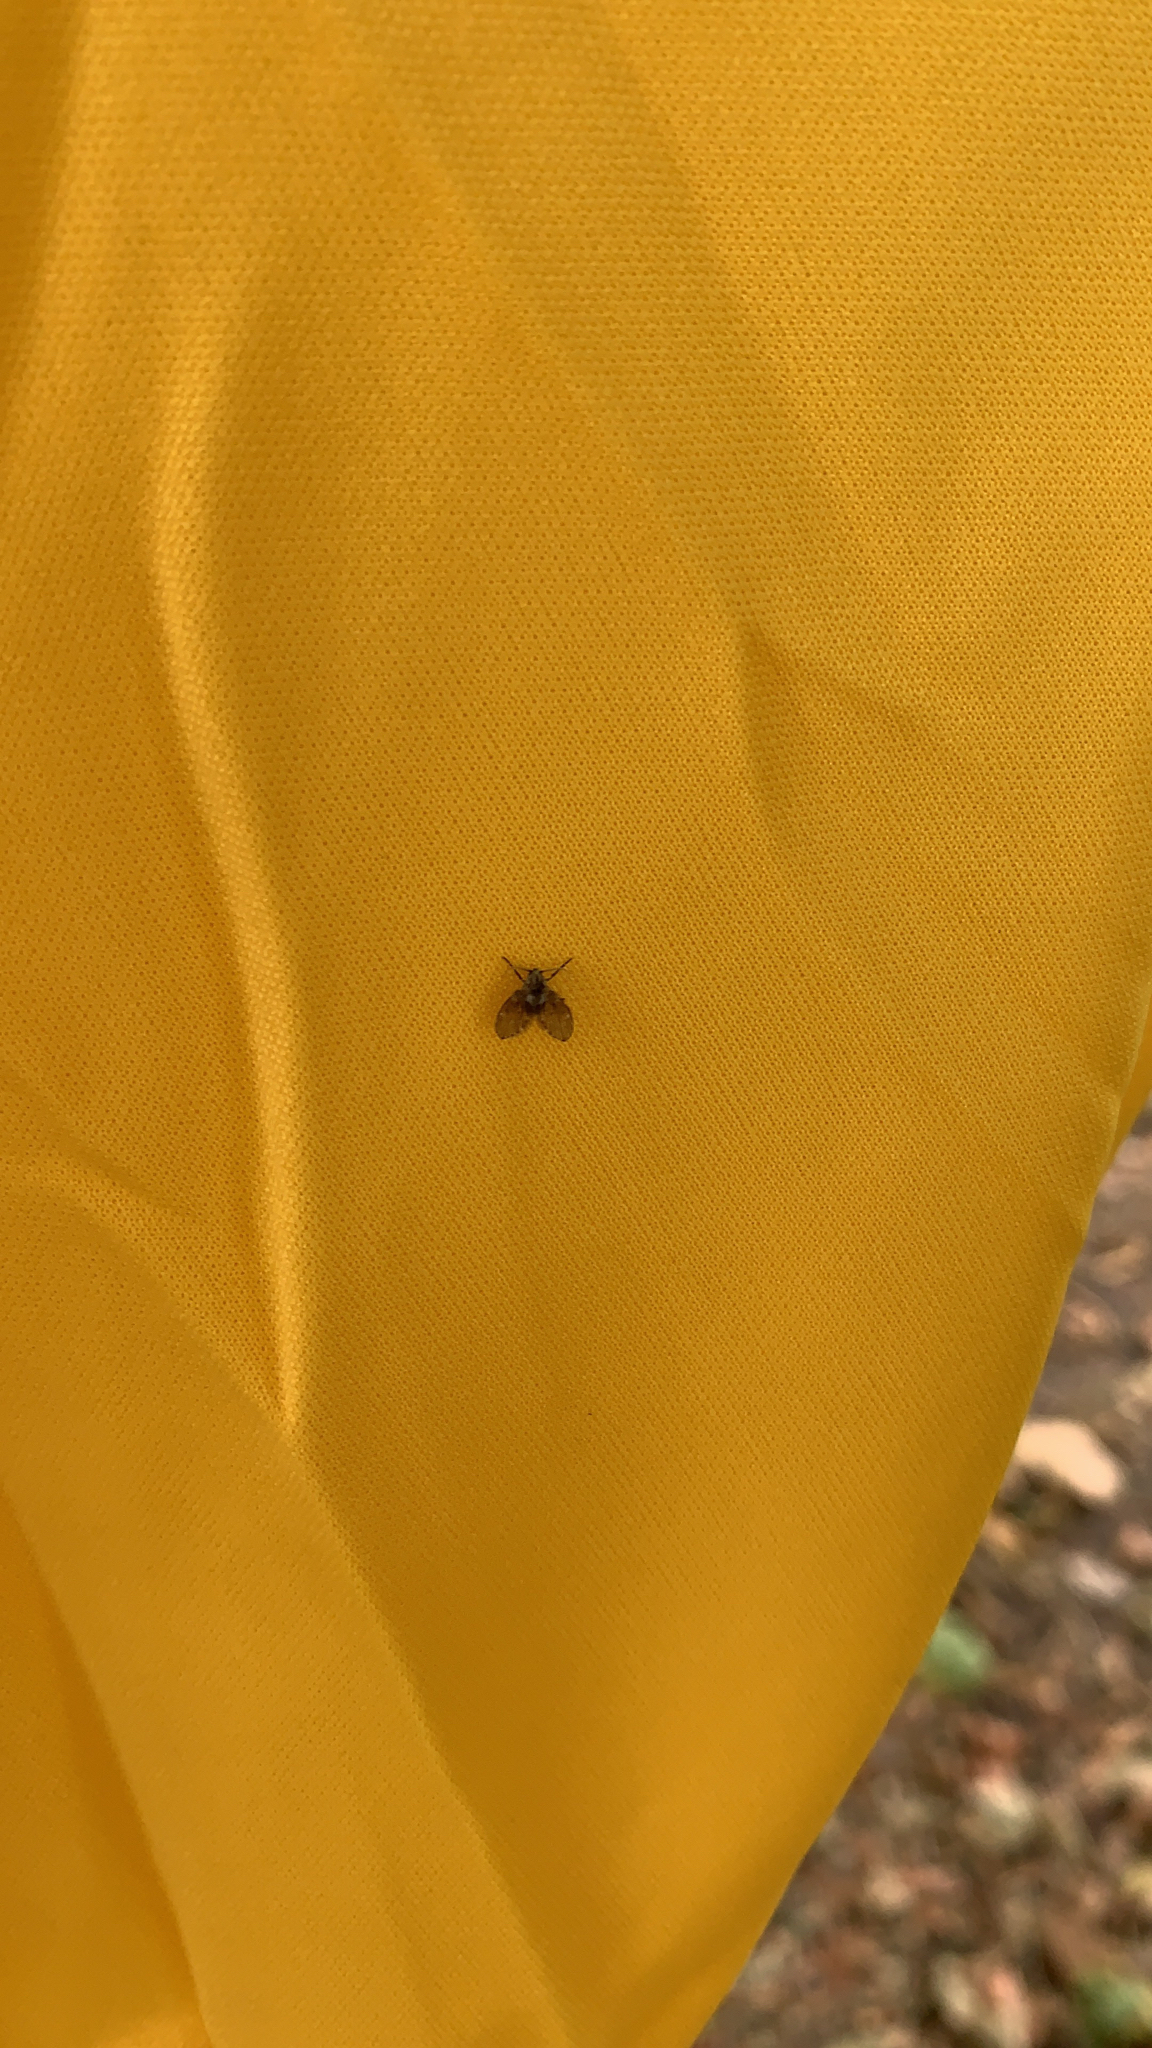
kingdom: Animalia
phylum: Arthropoda
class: Insecta
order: Diptera
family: Psychodidae
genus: Clogmia
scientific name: Clogmia albipunctatus
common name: White-spotted moth fly
